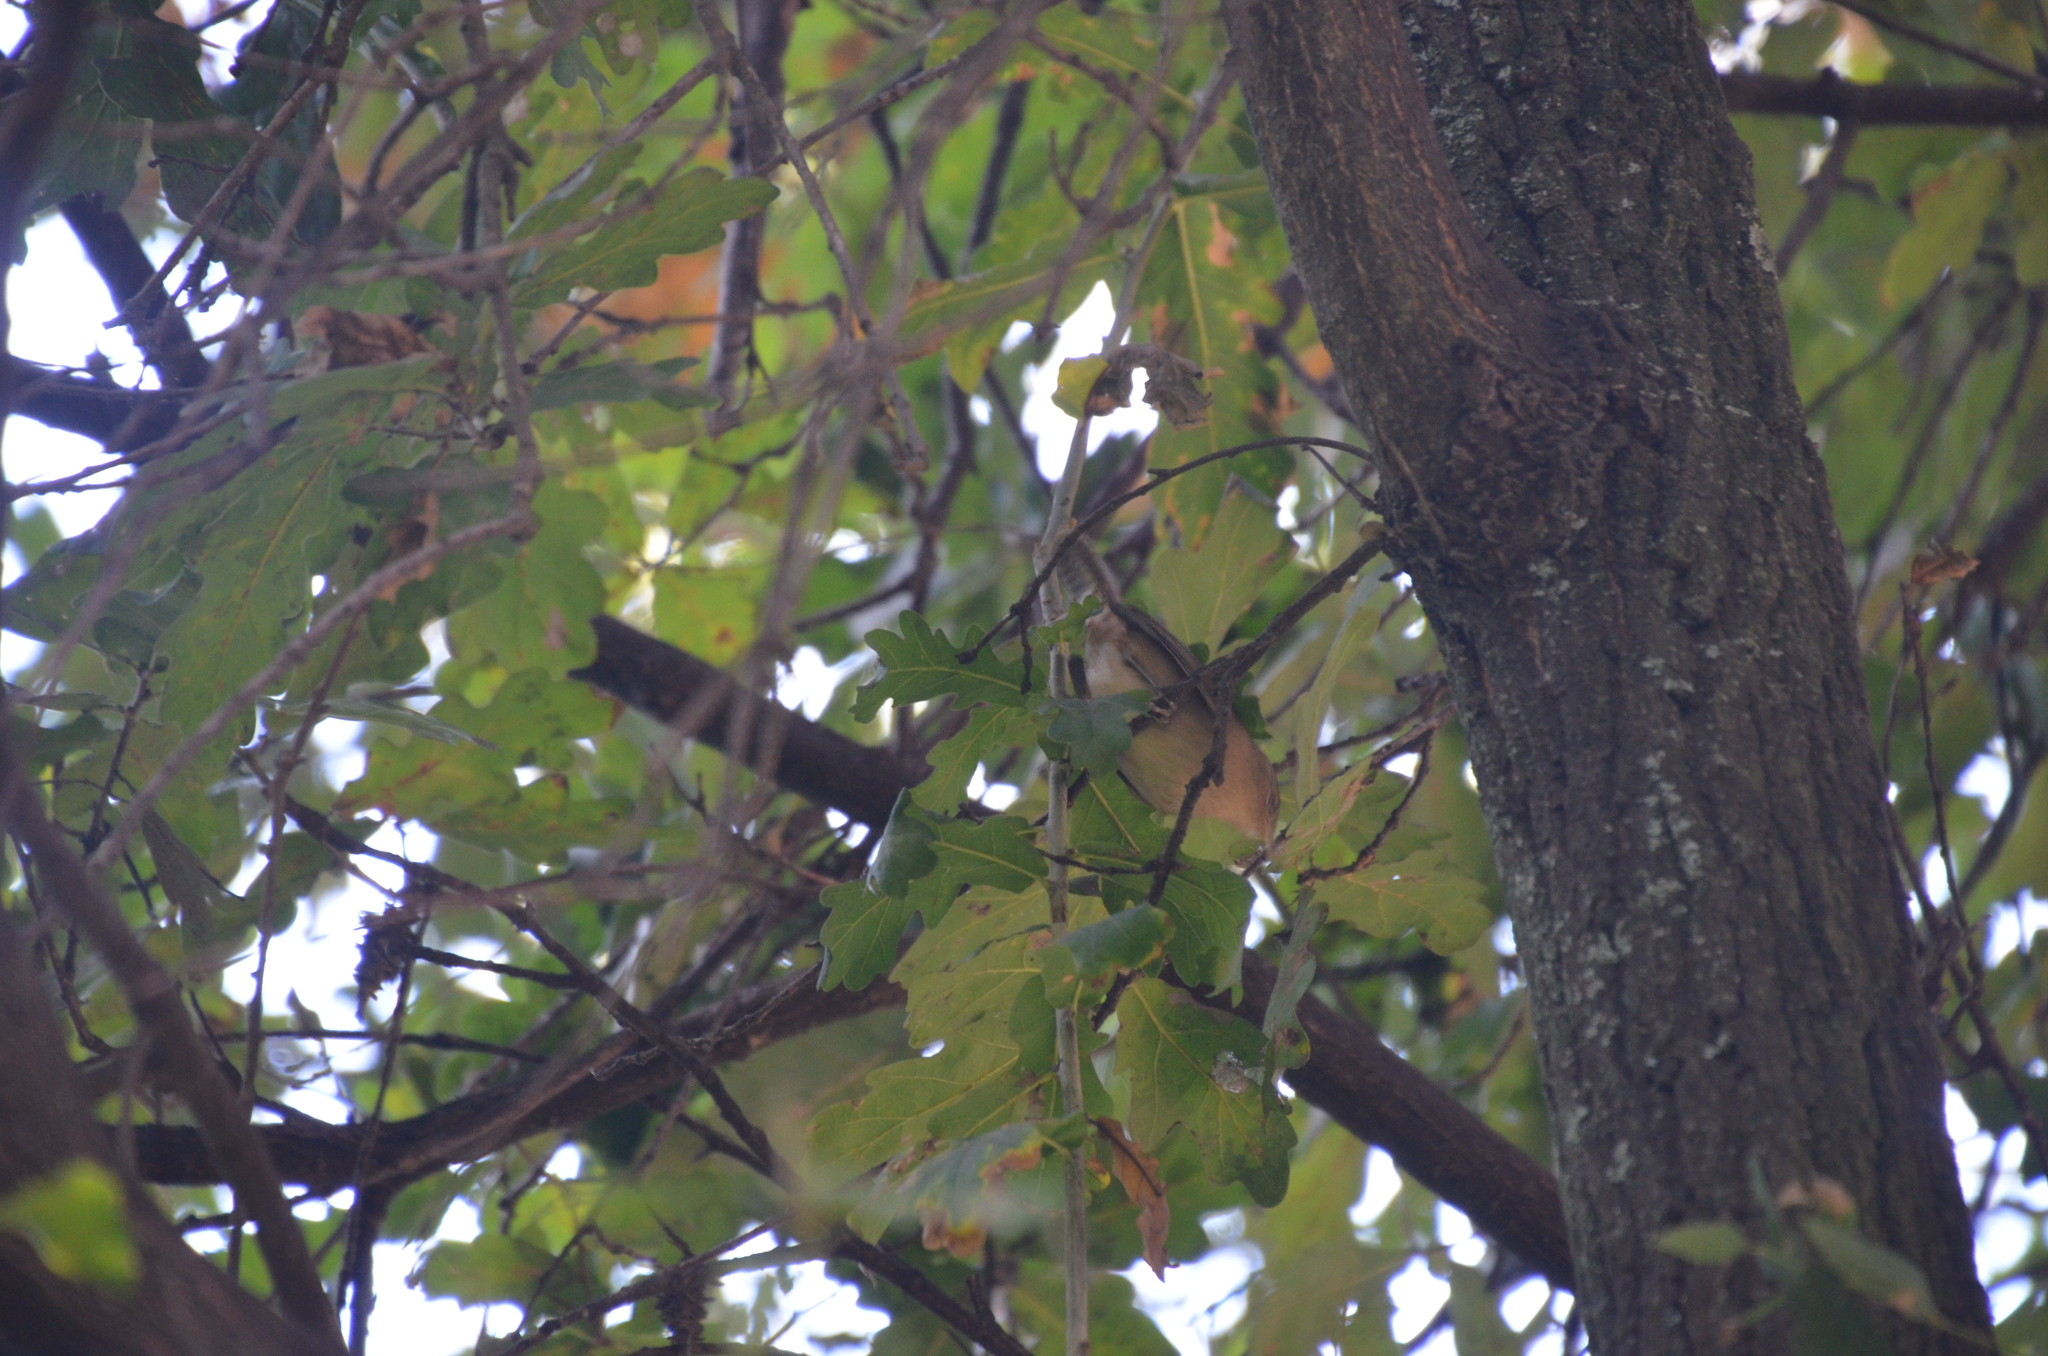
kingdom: Animalia
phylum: Chordata
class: Aves
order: Passeriformes
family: Troglodytidae
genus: Troglodytes
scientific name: Troglodytes aedon
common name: House wren
